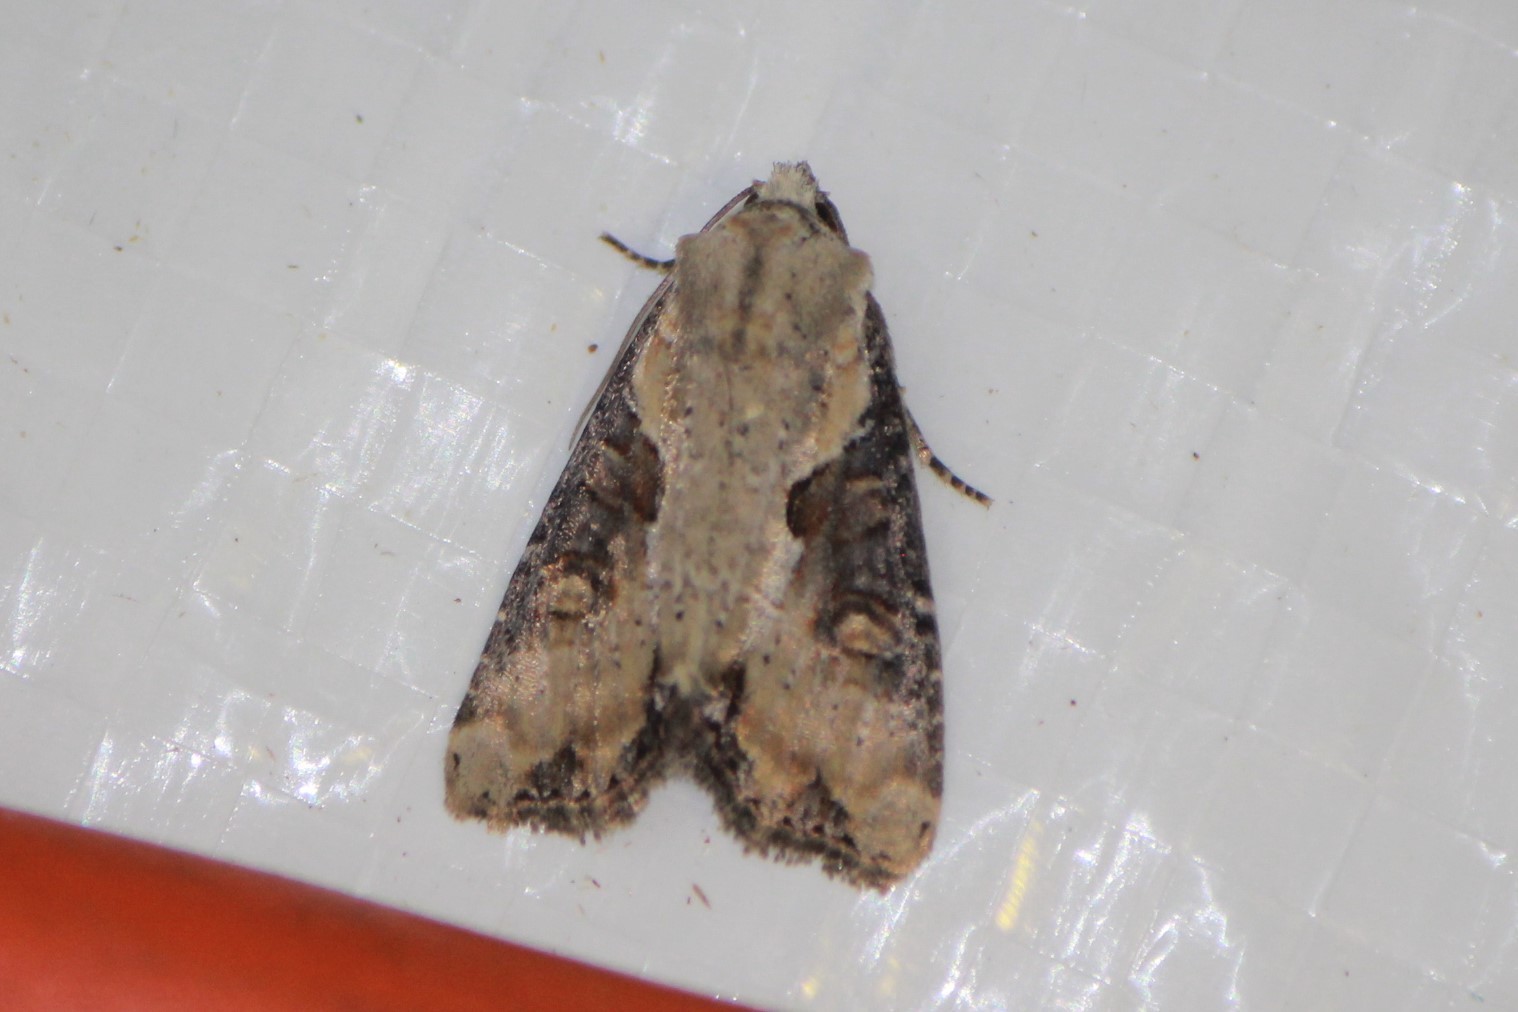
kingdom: Animalia
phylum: Arthropoda
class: Insecta
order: Lepidoptera
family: Noctuidae
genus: Lateroligia
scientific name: Lateroligia ophiogramma
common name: Double lobed
